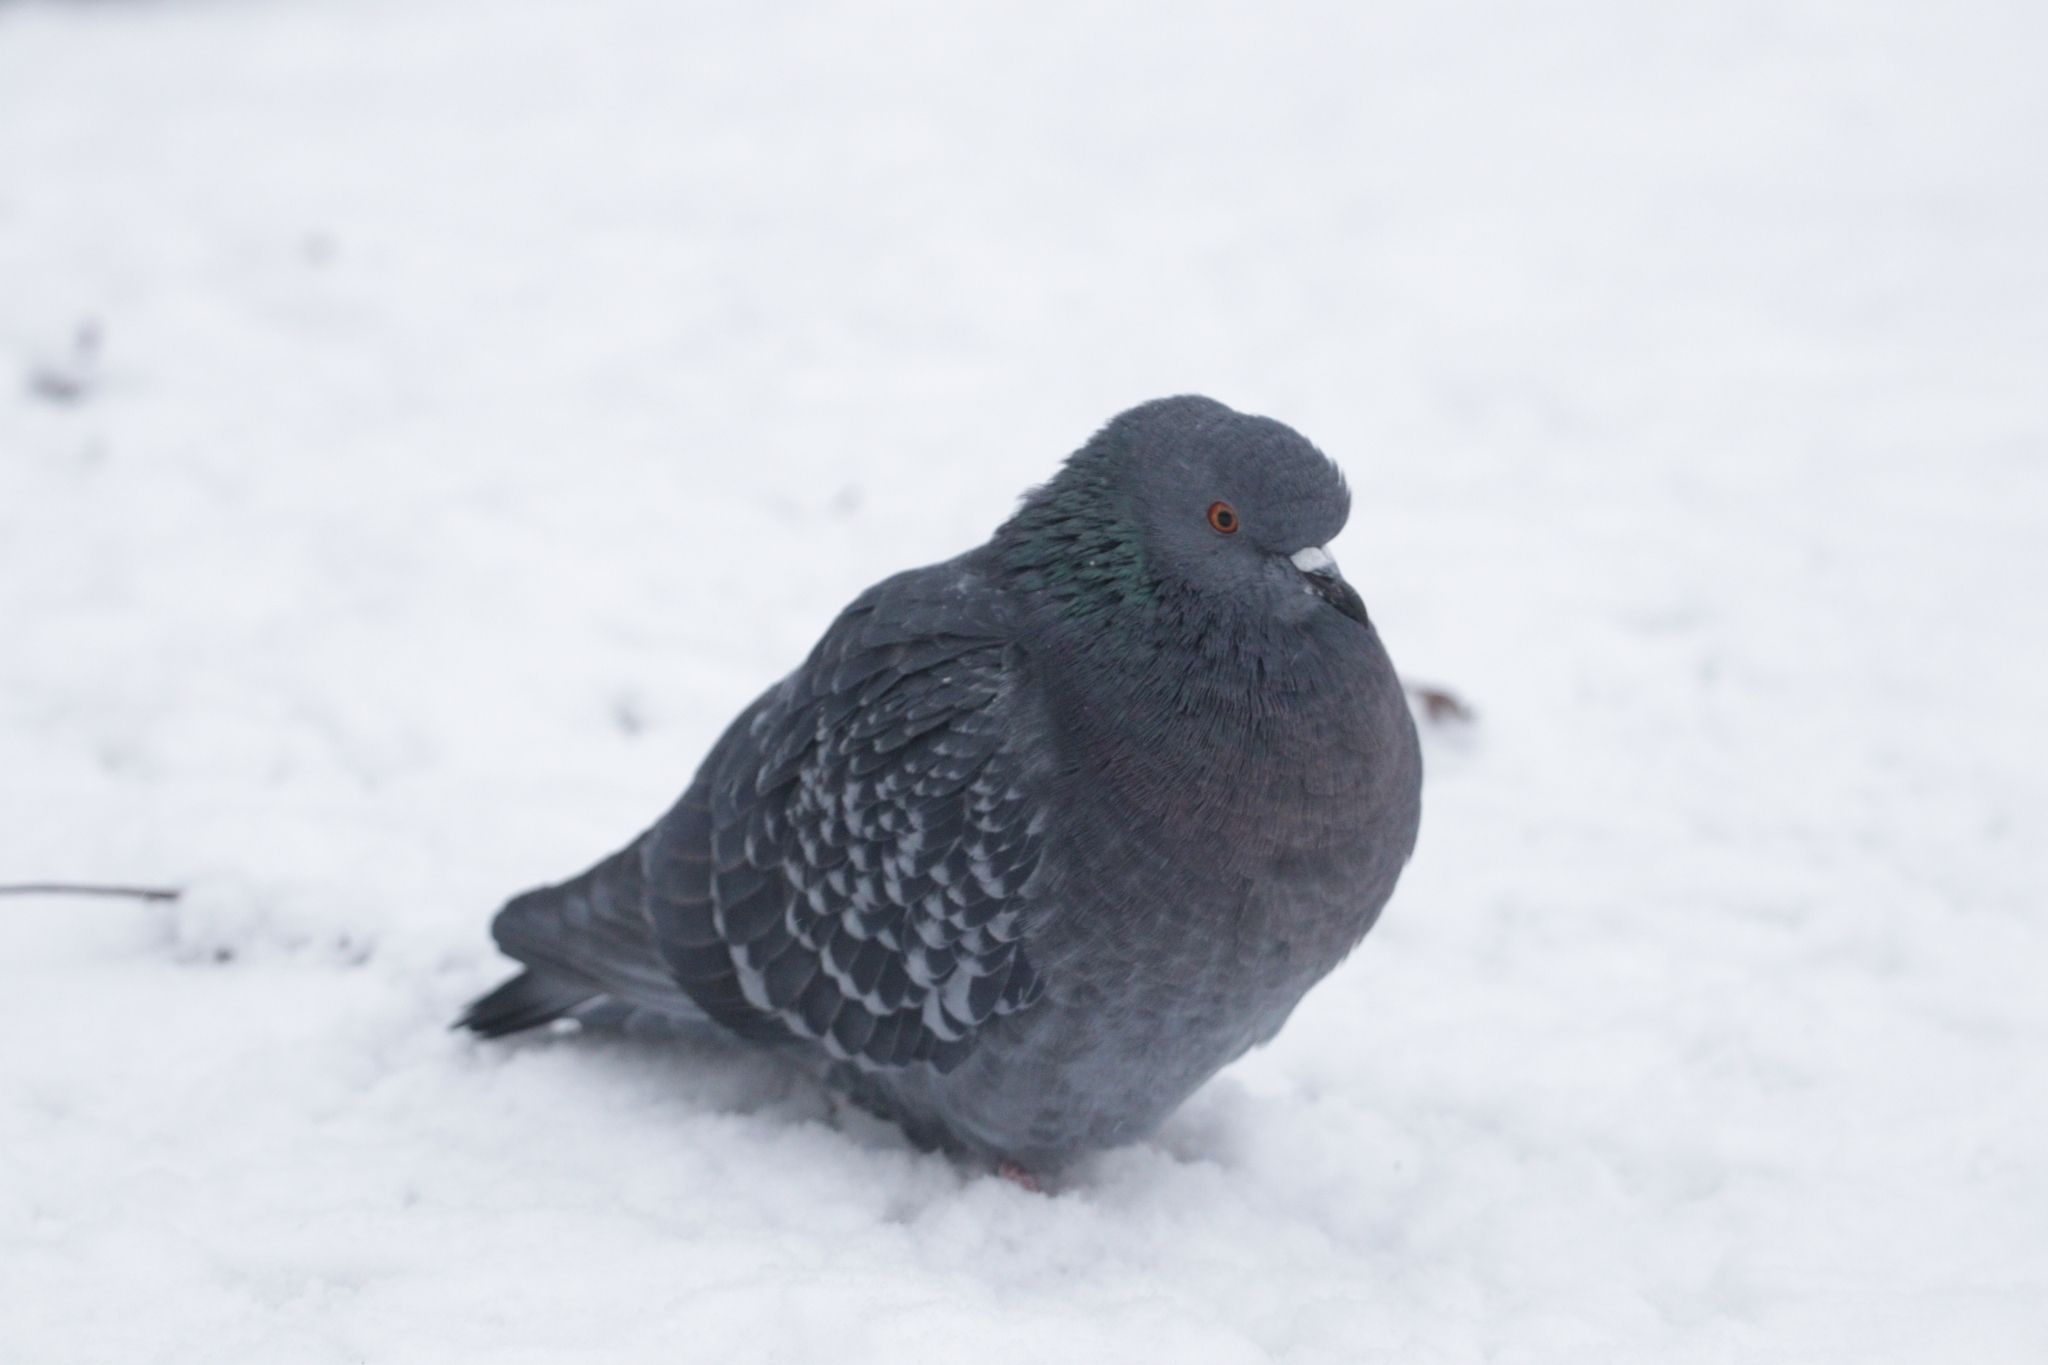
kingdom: Animalia
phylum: Chordata
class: Aves
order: Columbiformes
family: Columbidae
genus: Columba
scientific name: Columba livia
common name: Rock pigeon
